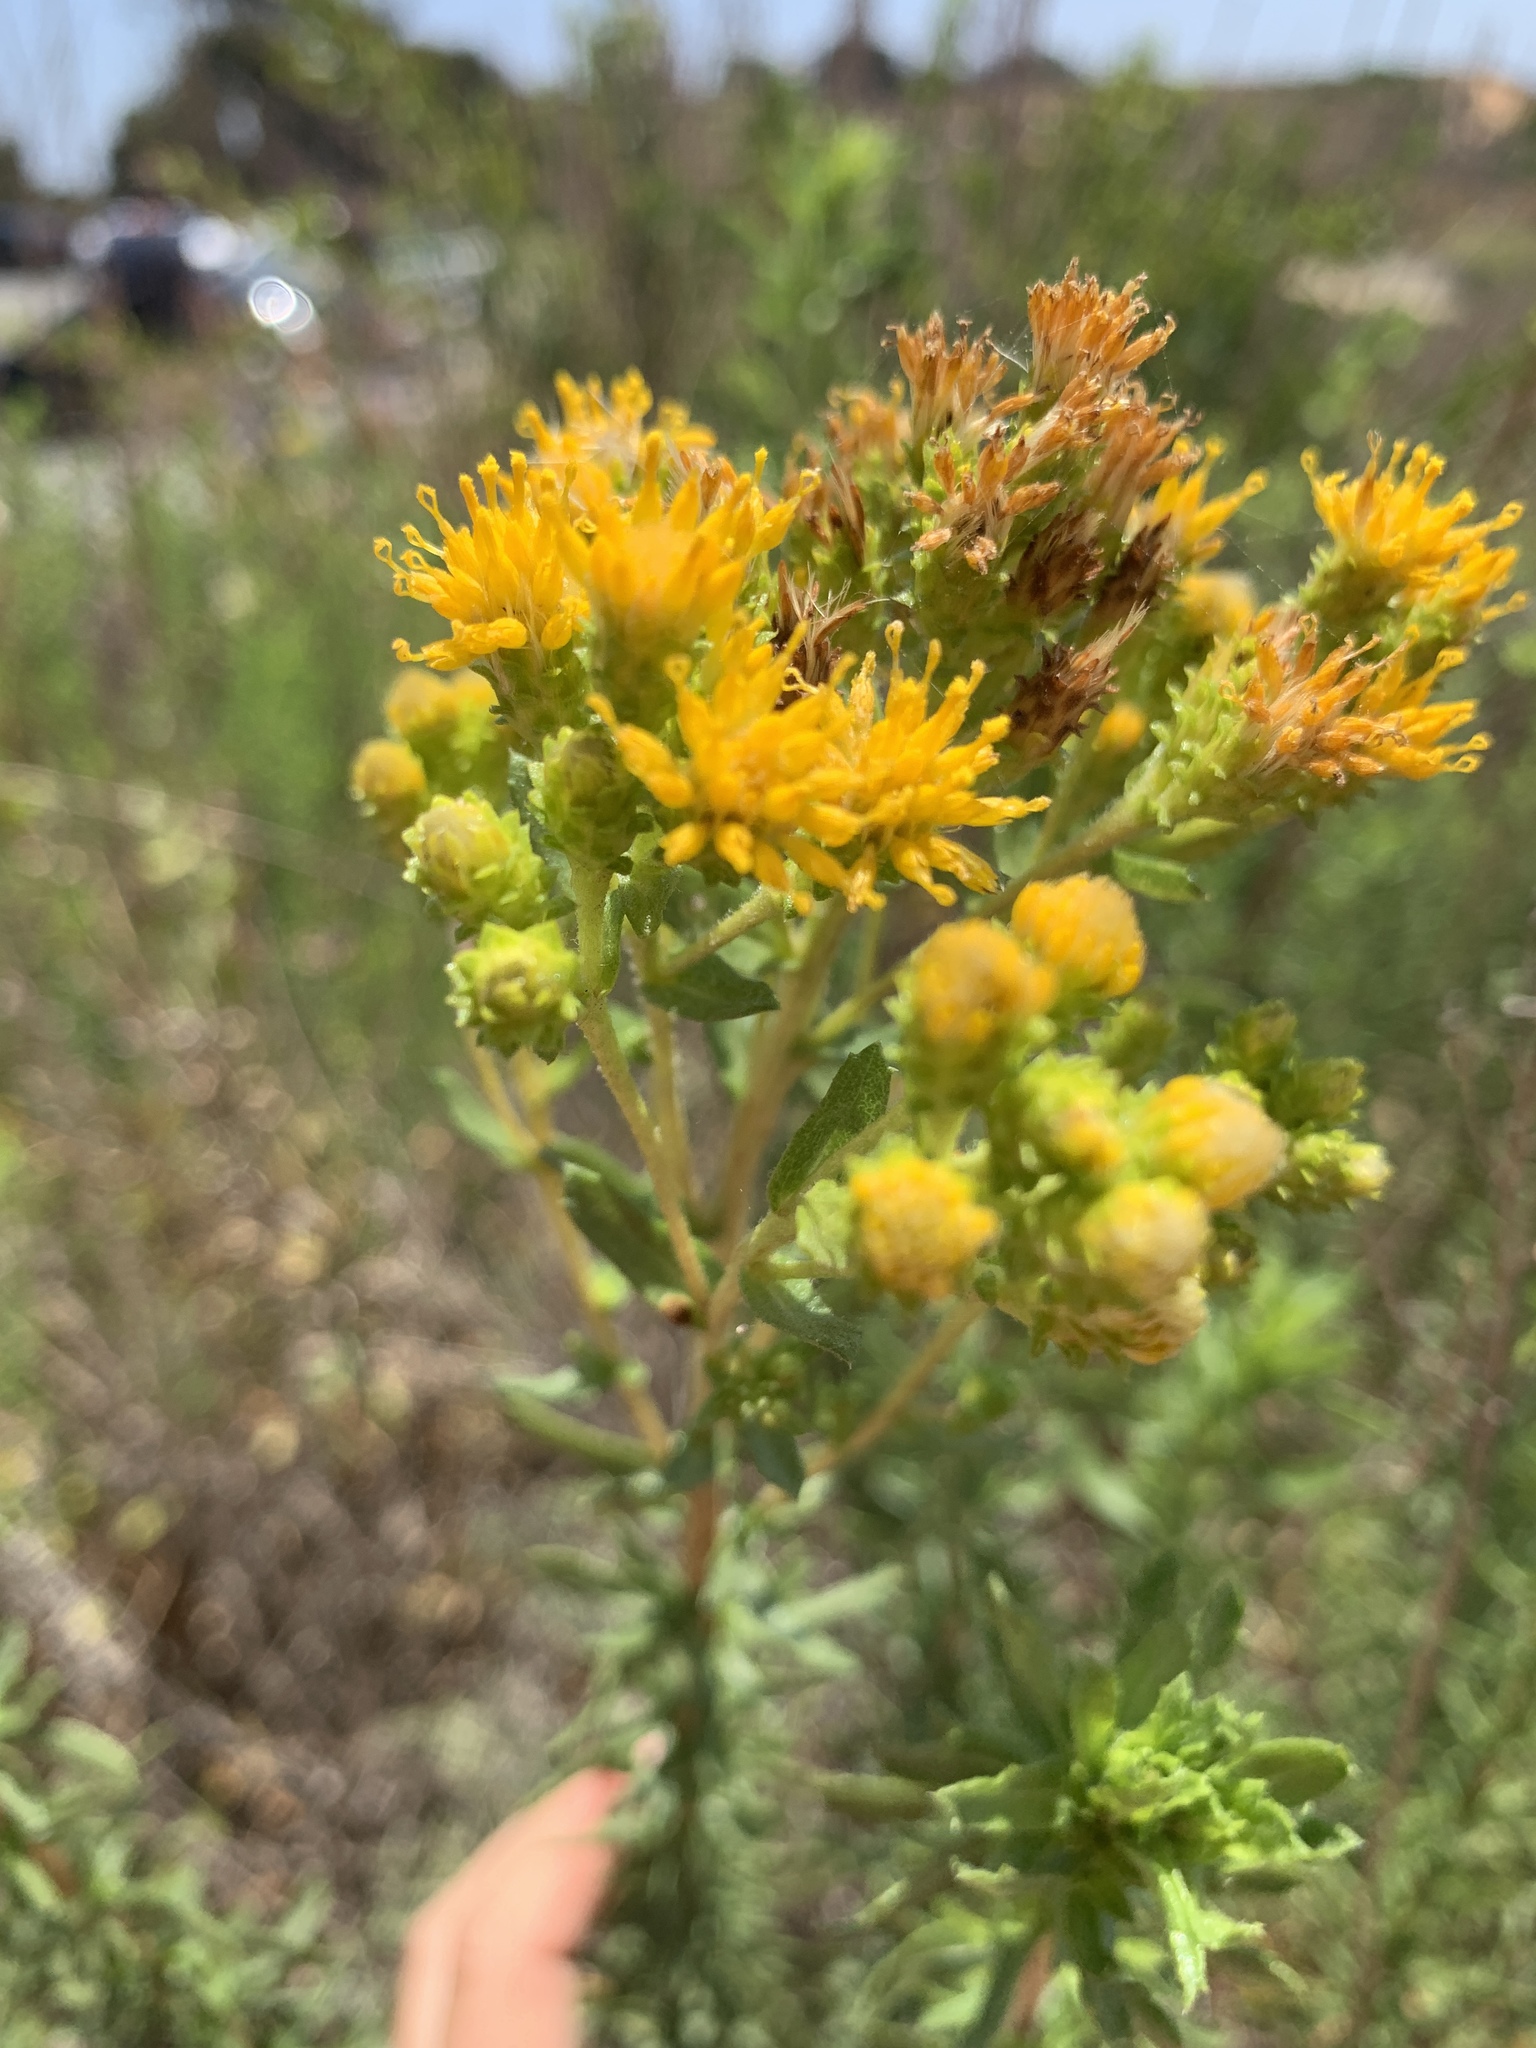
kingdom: Plantae
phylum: Tracheophyta
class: Magnoliopsida
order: Asterales
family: Asteraceae
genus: Isocoma
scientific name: Isocoma menziesii
